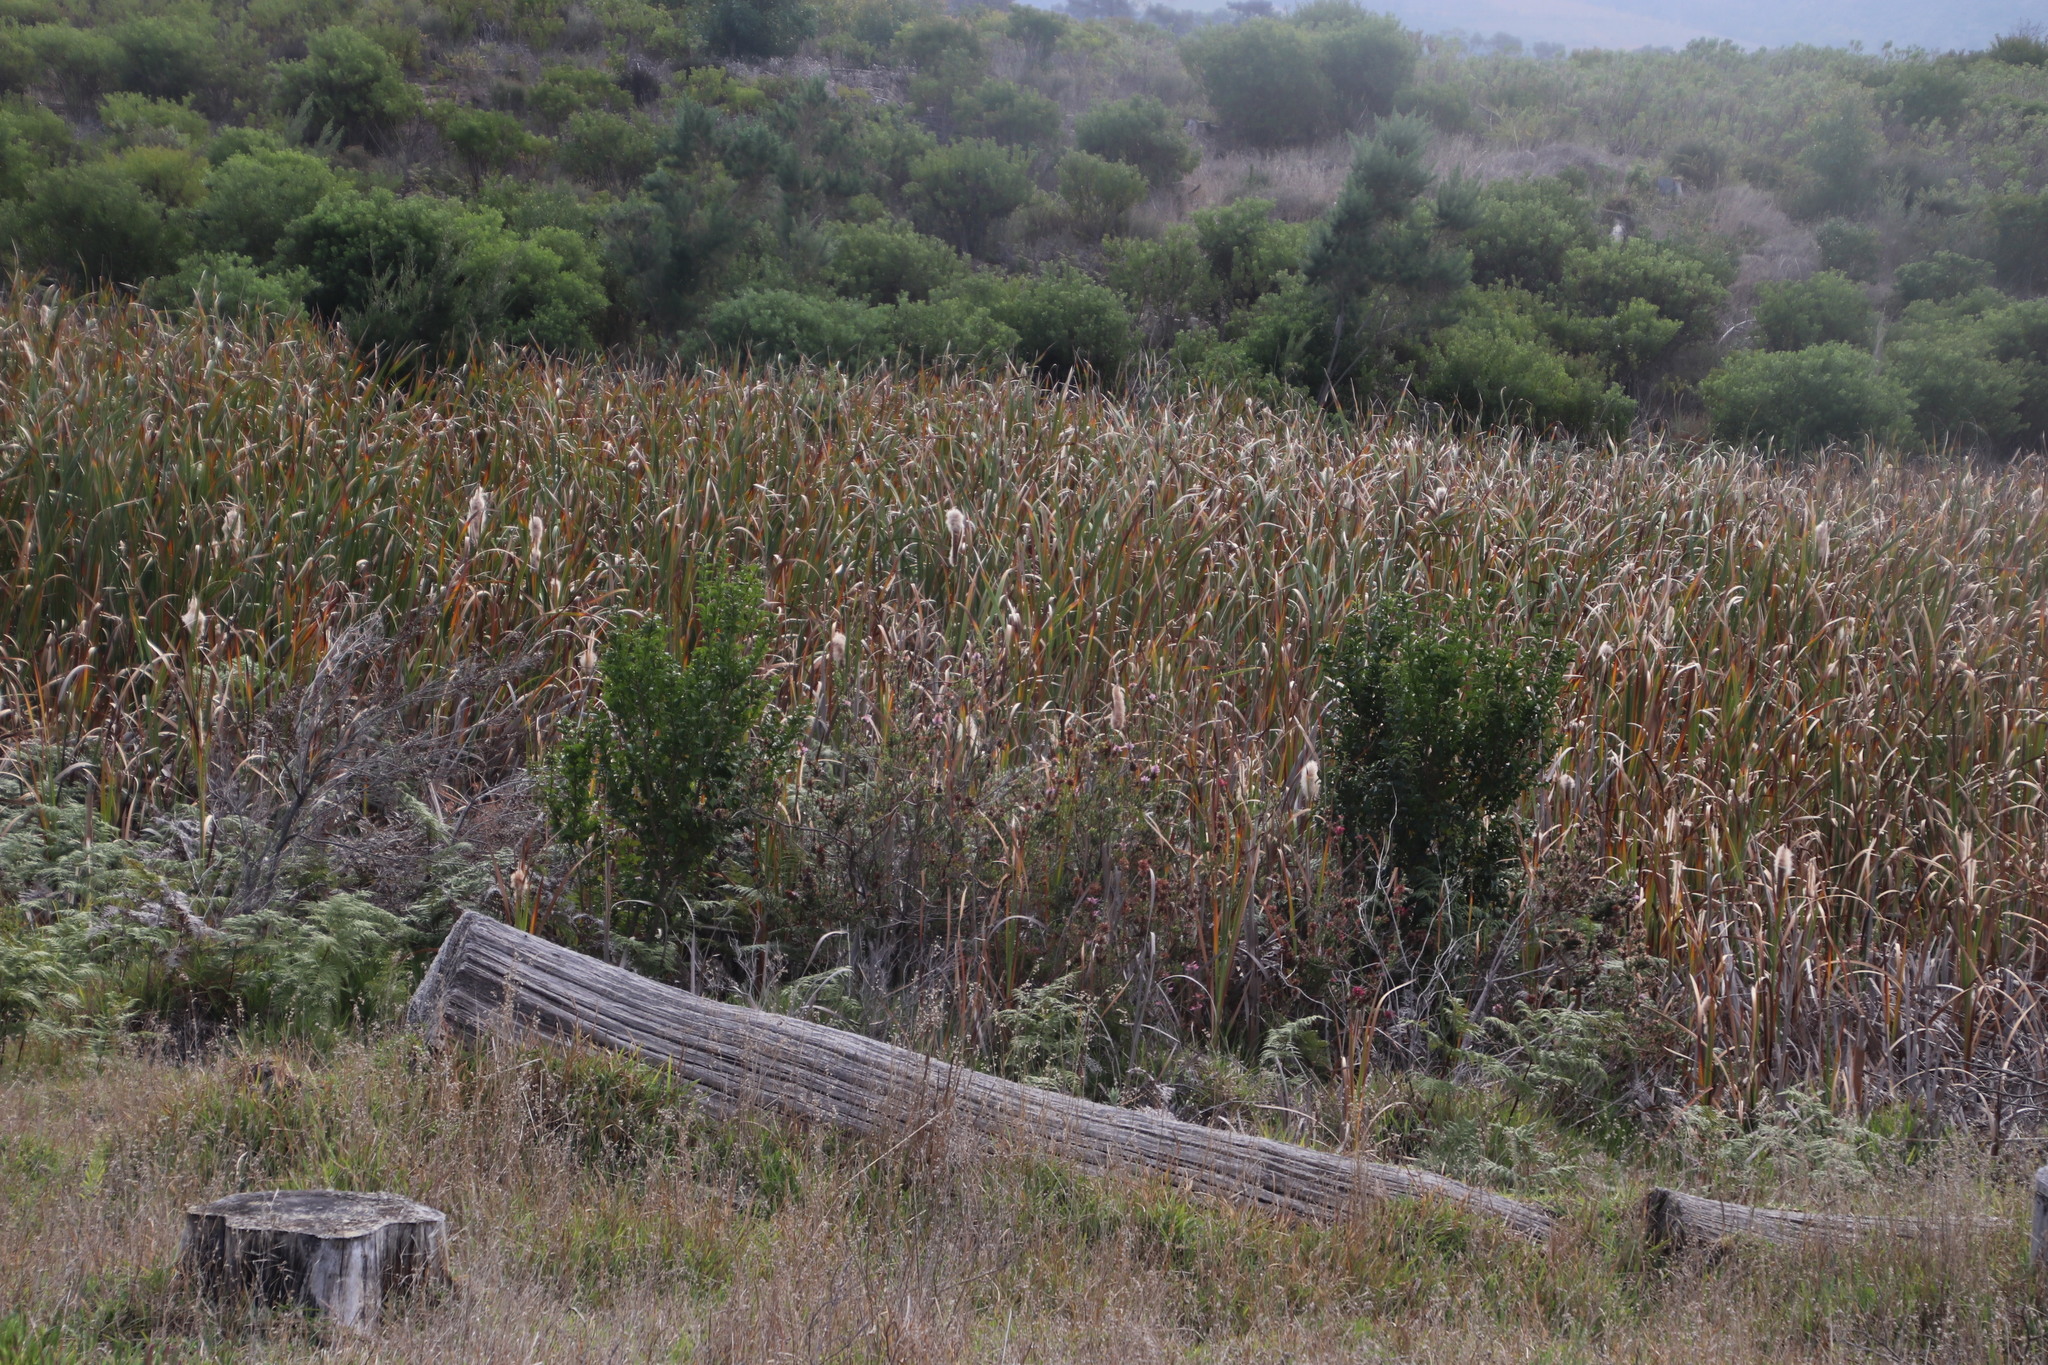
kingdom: Plantae
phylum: Tracheophyta
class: Liliopsida
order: Poales
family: Typhaceae
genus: Typha
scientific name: Typha capensis
